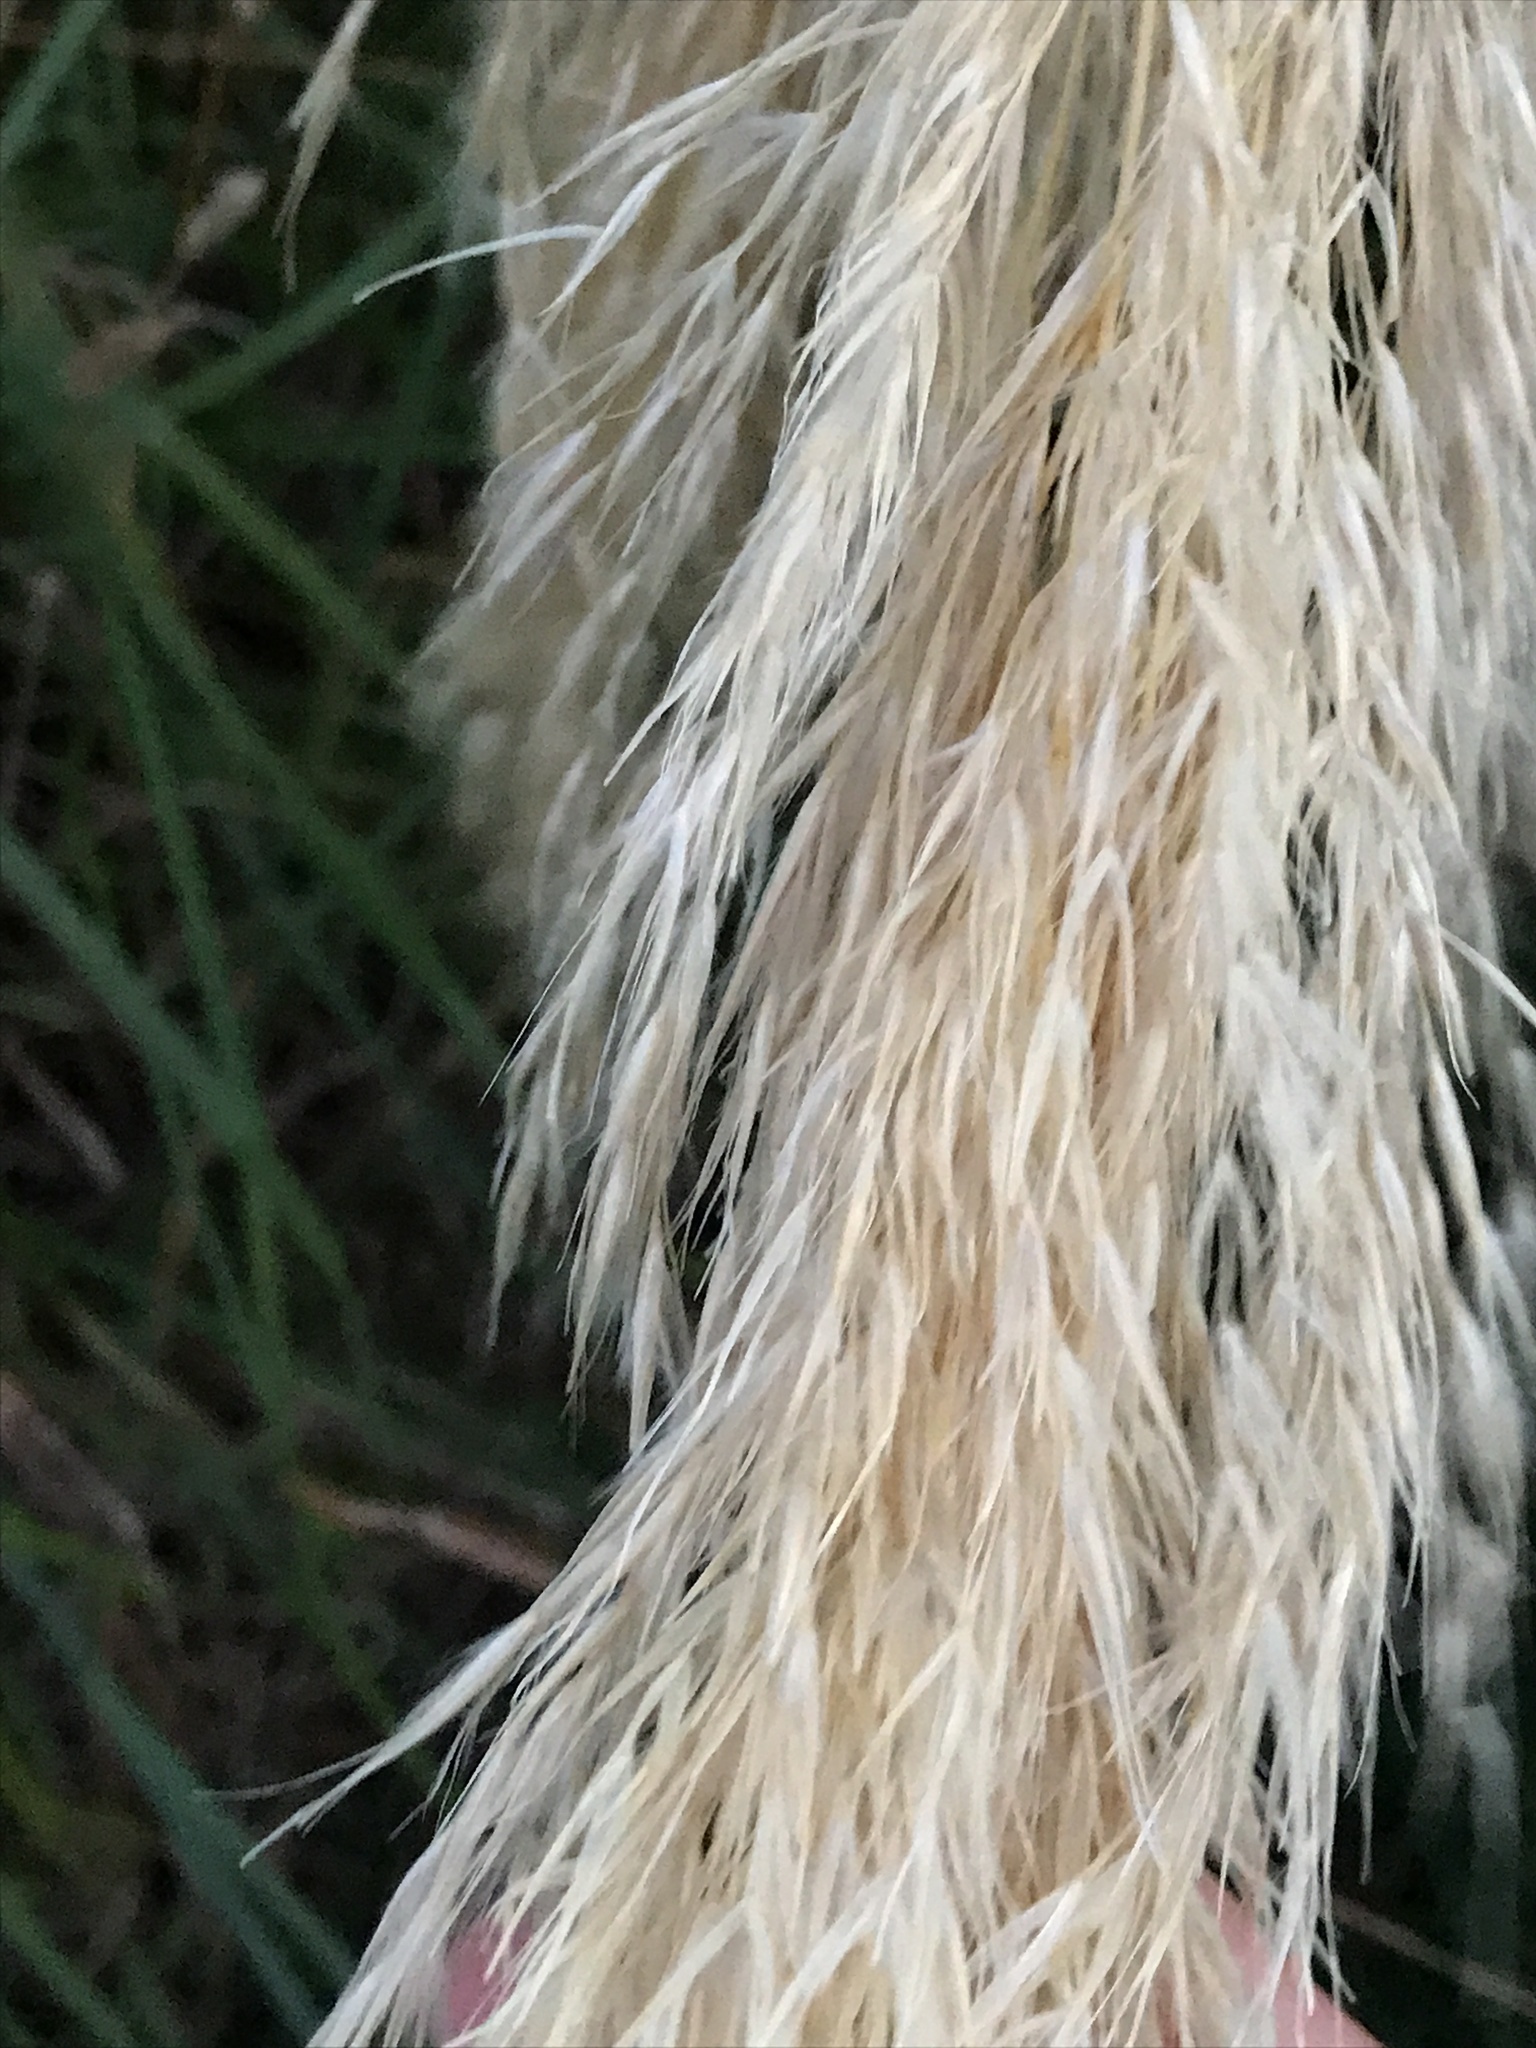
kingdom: Plantae
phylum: Tracheophyta
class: Liliopsida
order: Poales
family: Poaceae
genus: Austroderia
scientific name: Austroderia richardii
